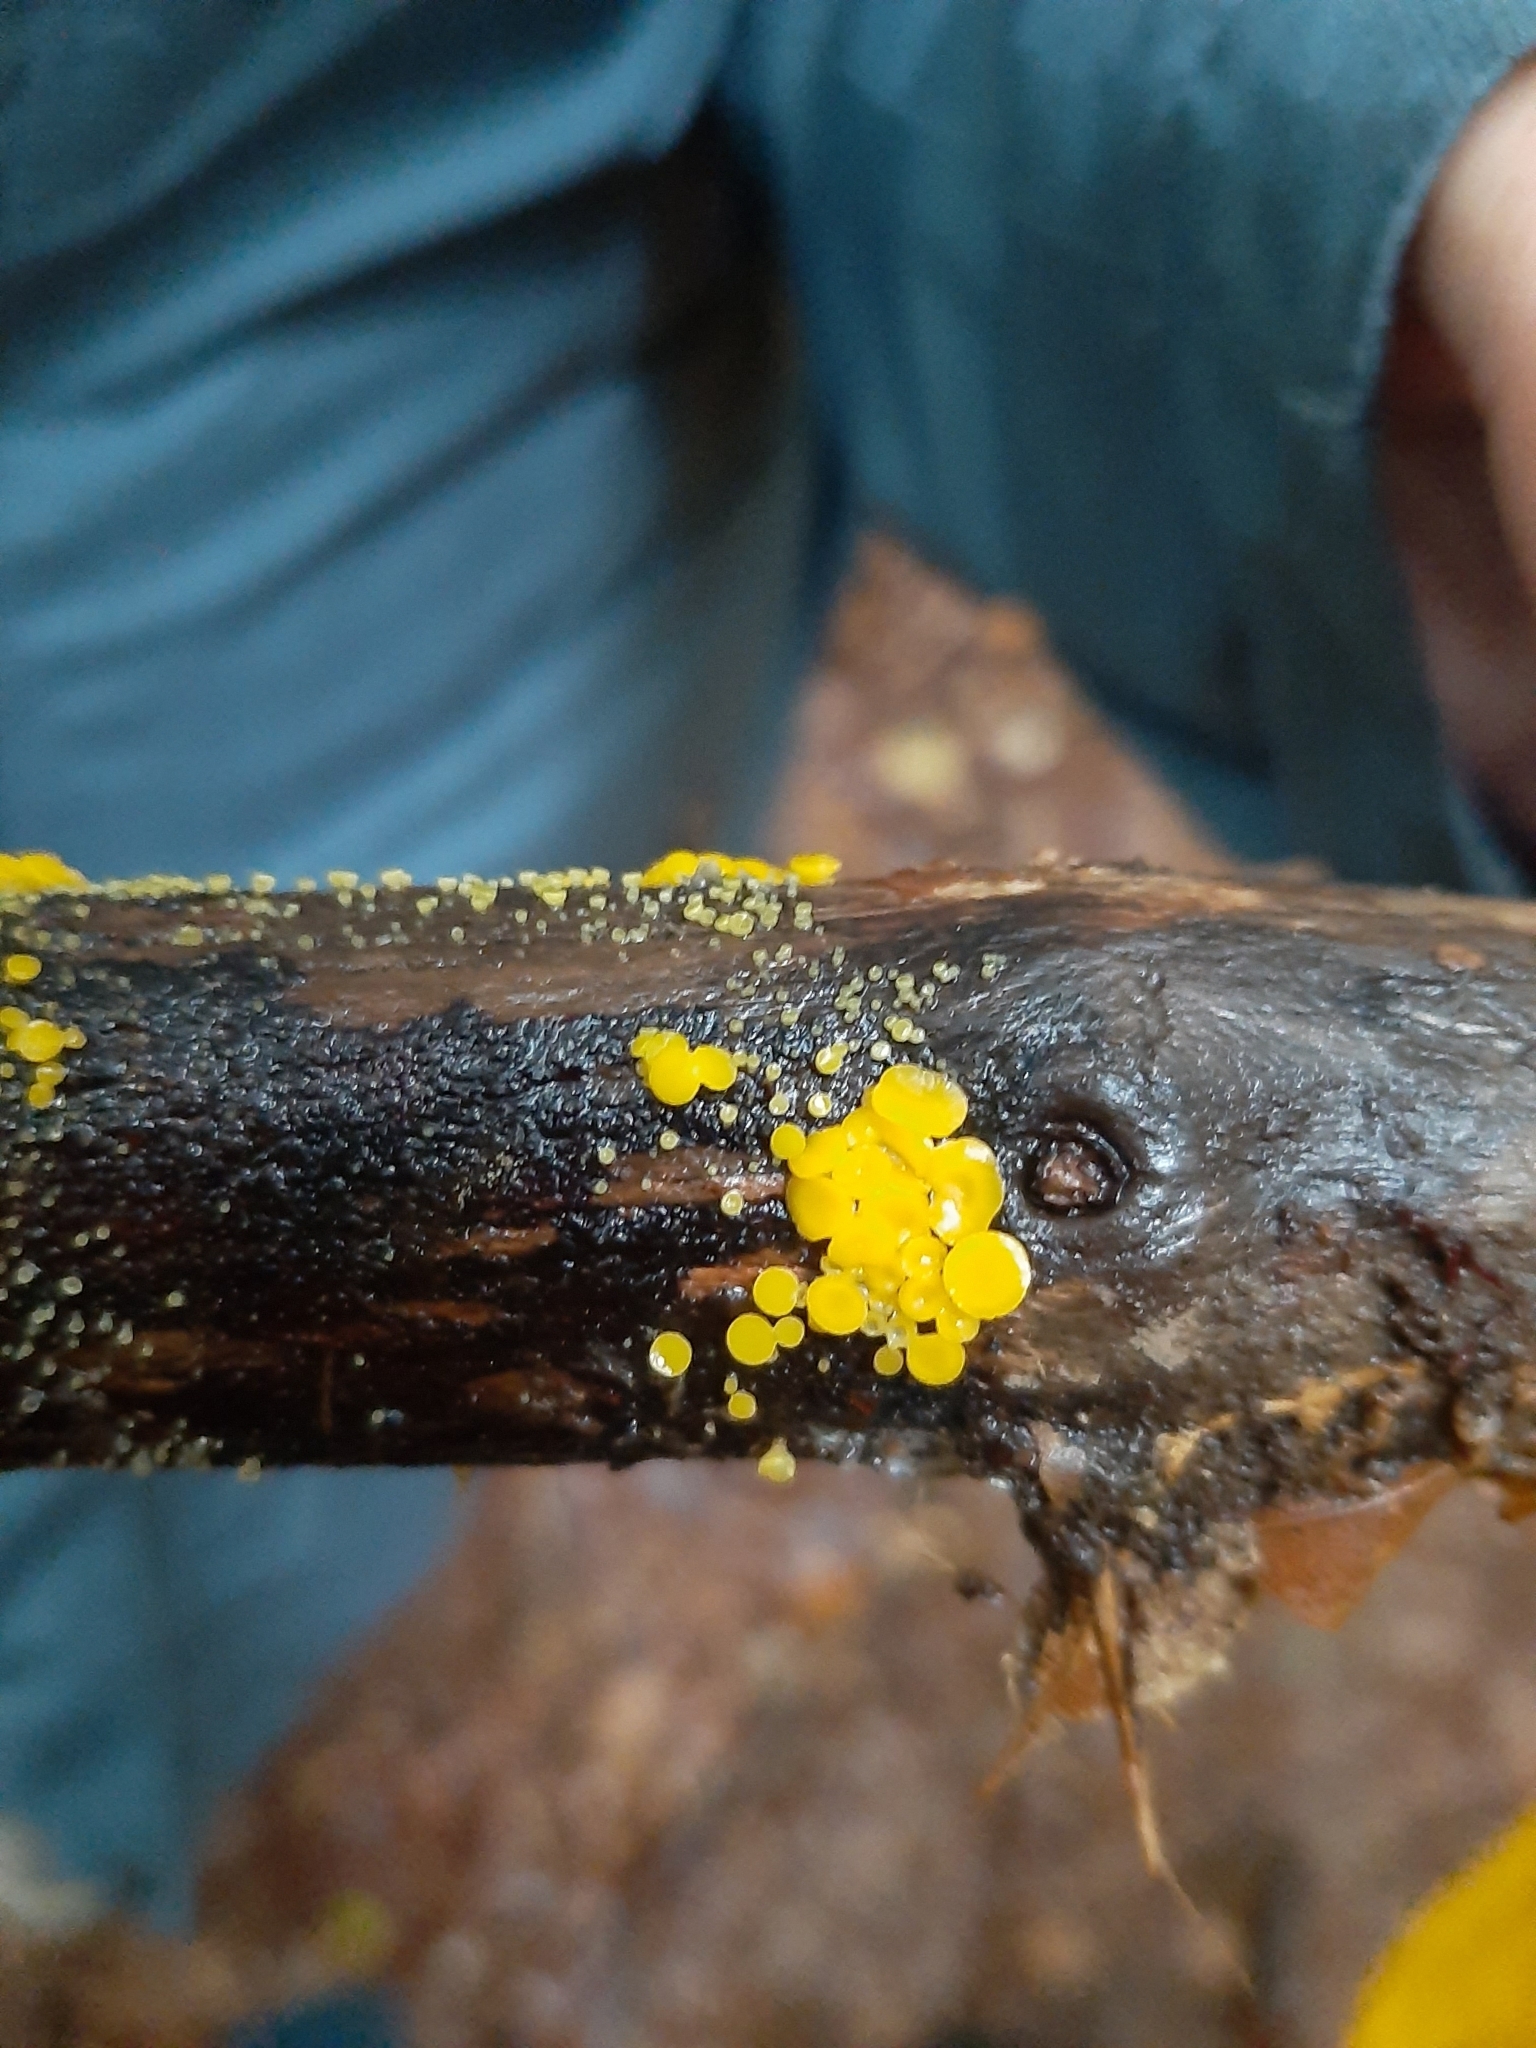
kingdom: Fungi
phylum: Ascomycota
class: Leotiomycetes
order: Helotiales
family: Pezizellaceae
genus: Calycina
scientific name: Calycina citrina
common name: Yellow fairy cups
